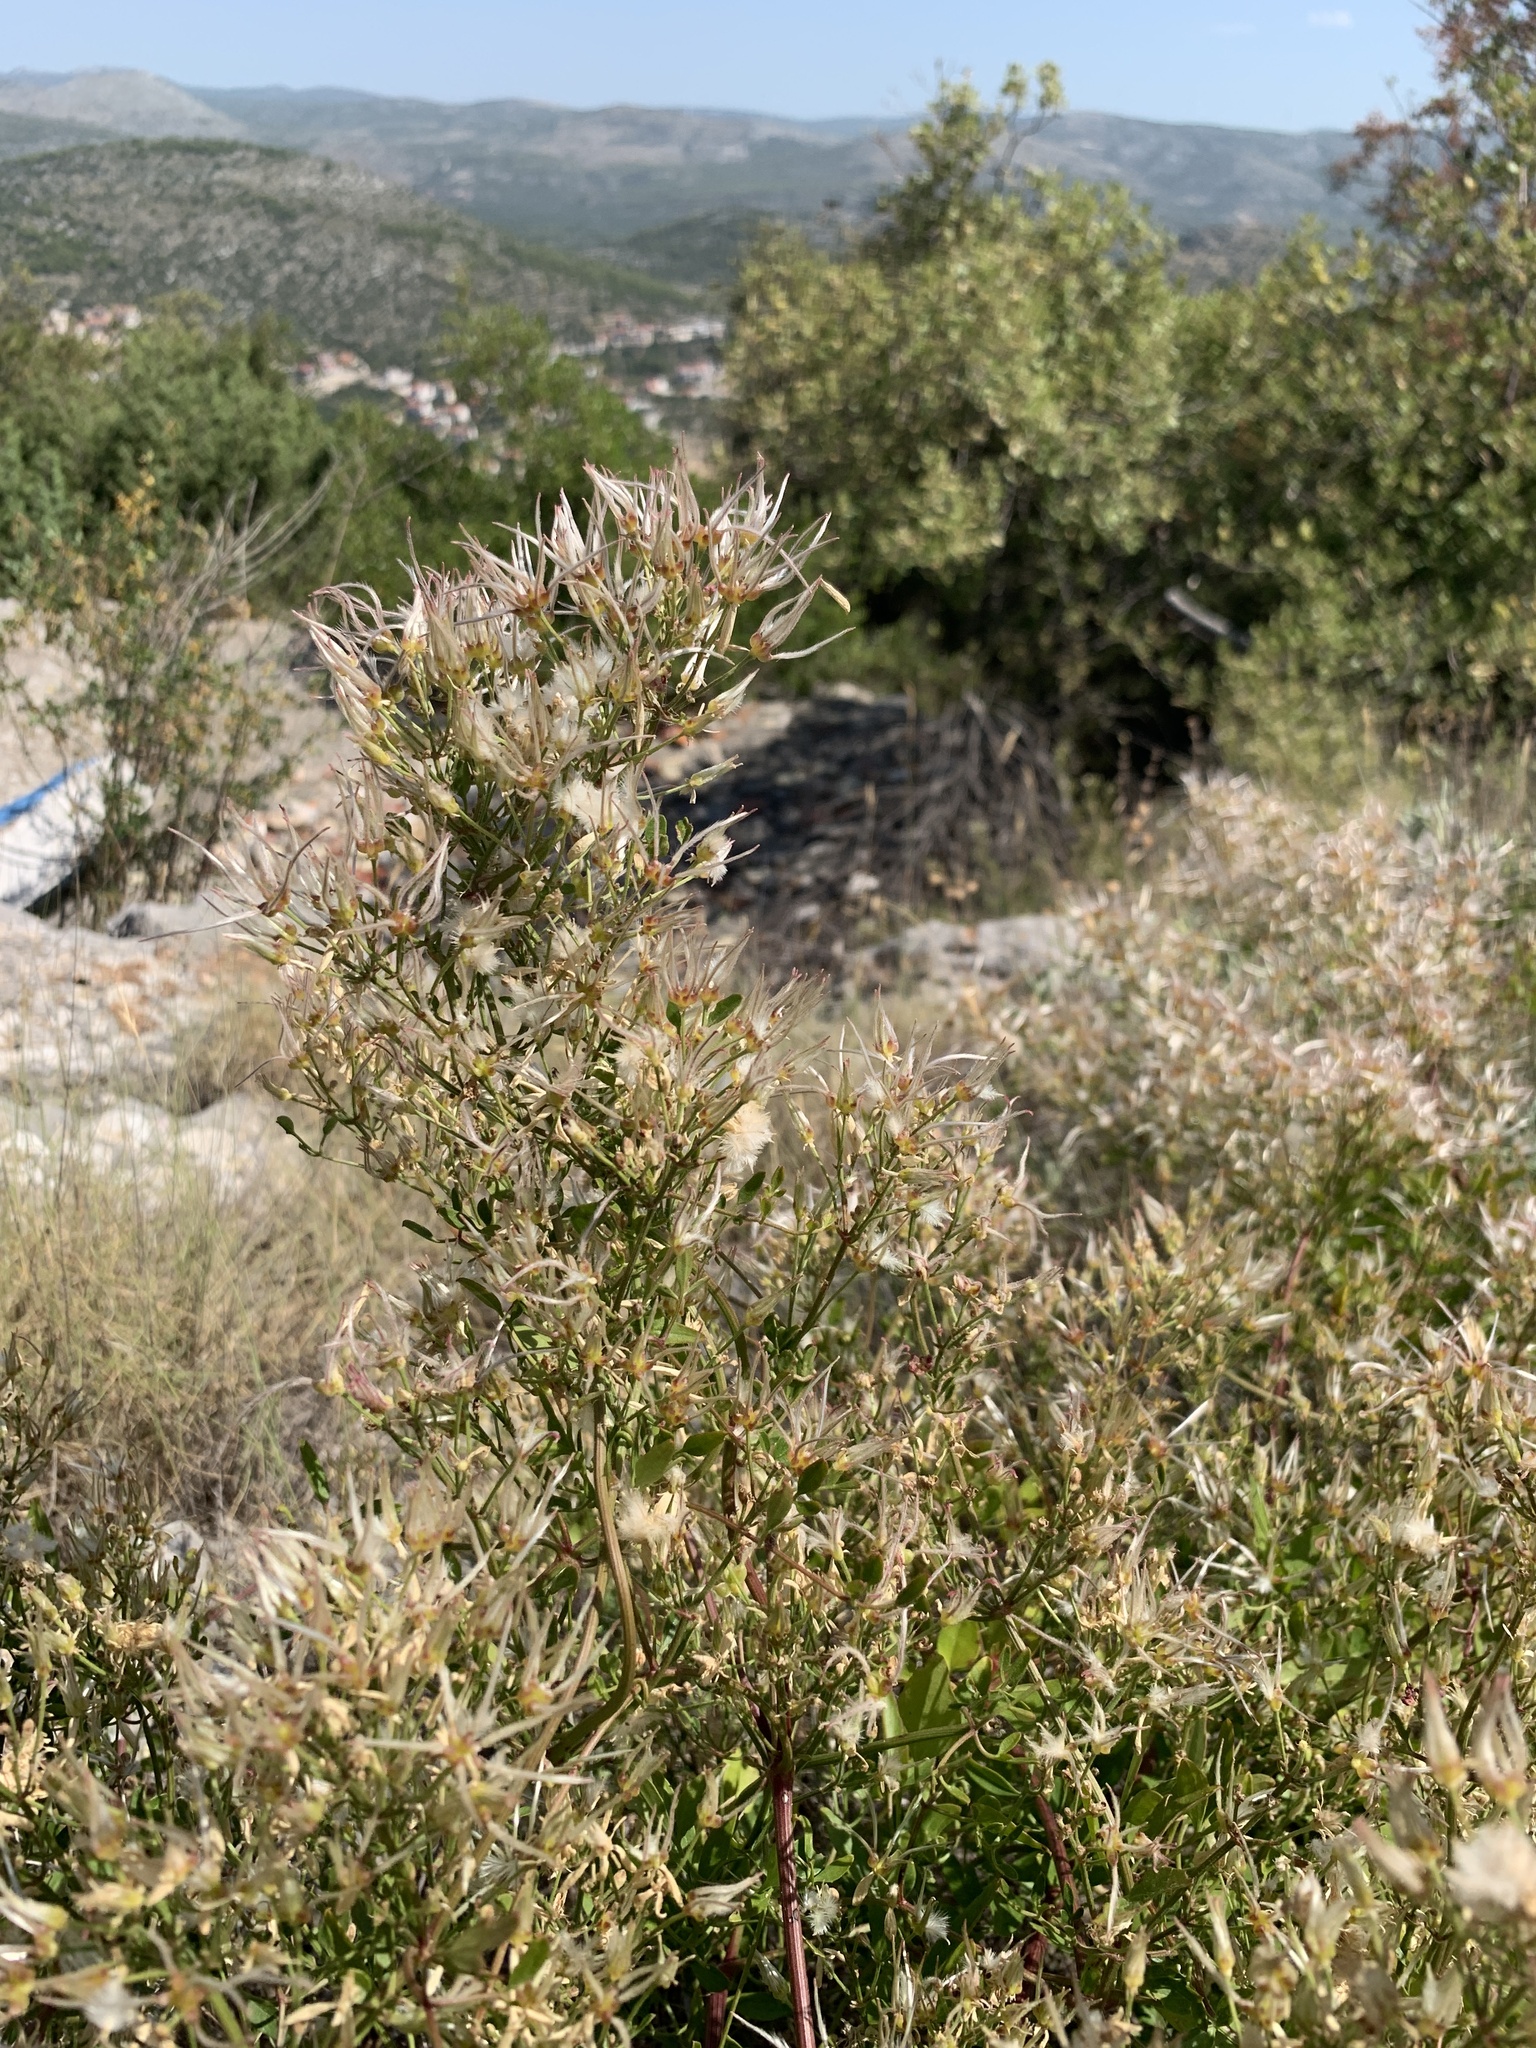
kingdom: Plantae
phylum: Tracheophyta
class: Magnoliopsida
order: Ranunculales
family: Ranunculaceae
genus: Clematis
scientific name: Clematis flammula
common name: Virgin's-bower
